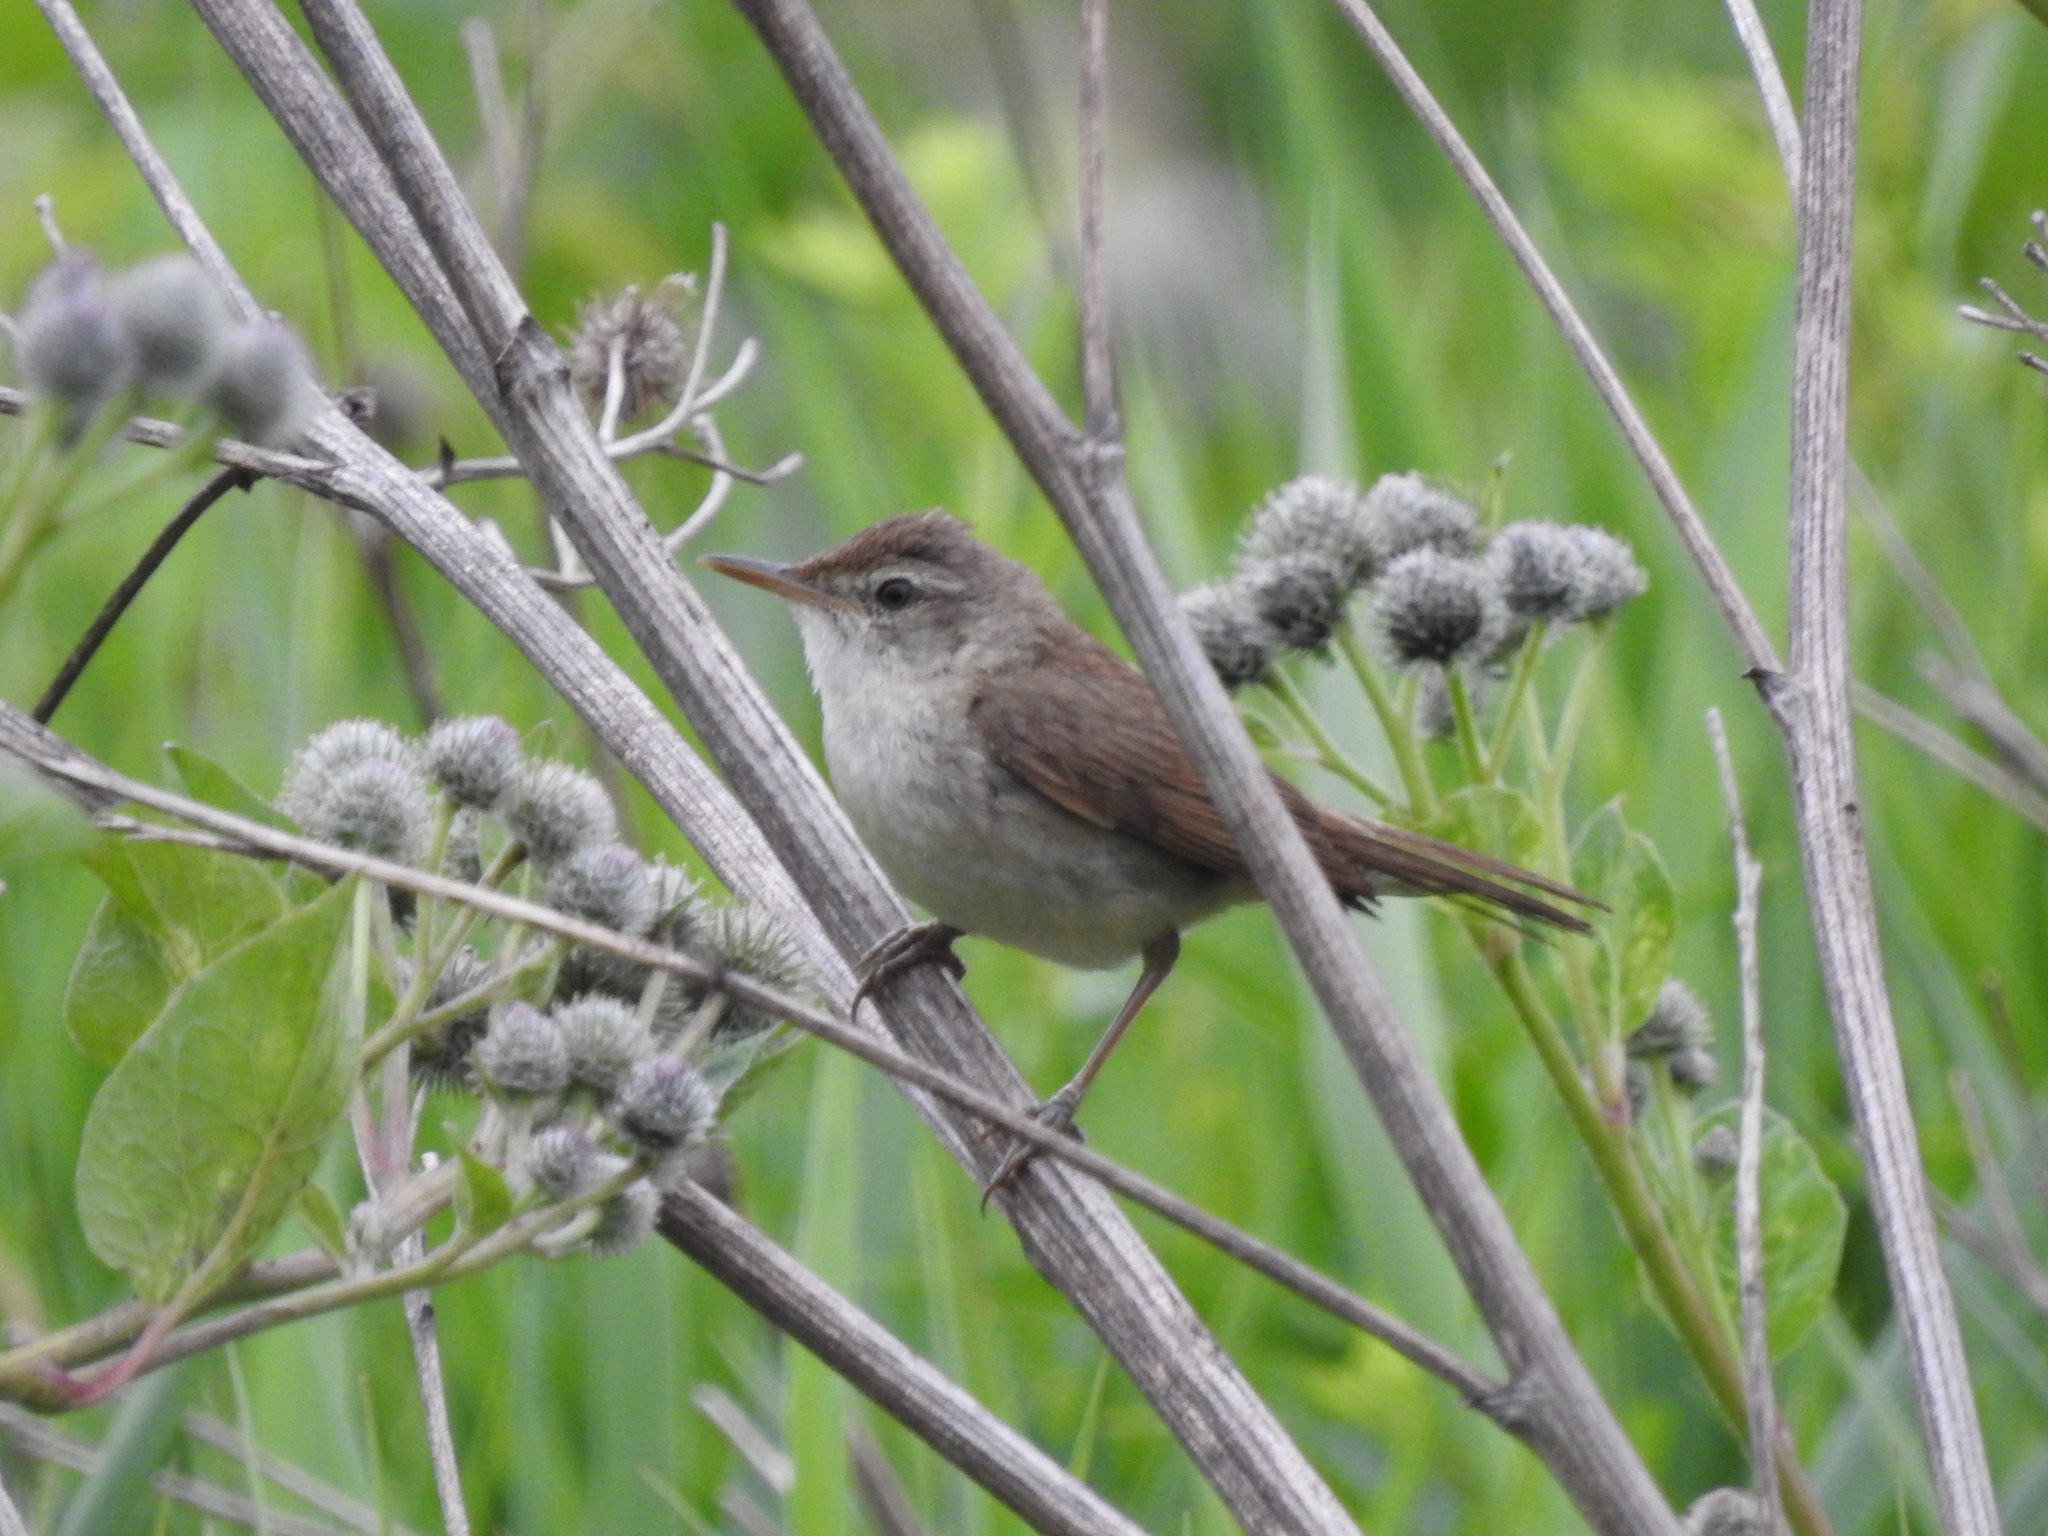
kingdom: Animalia
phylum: Chordata
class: Aves
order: Passeriformes
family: Acrocephalidae
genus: Acrocephalus
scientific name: Acrocephalus dumetorum
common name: Blyth's reed warbler
